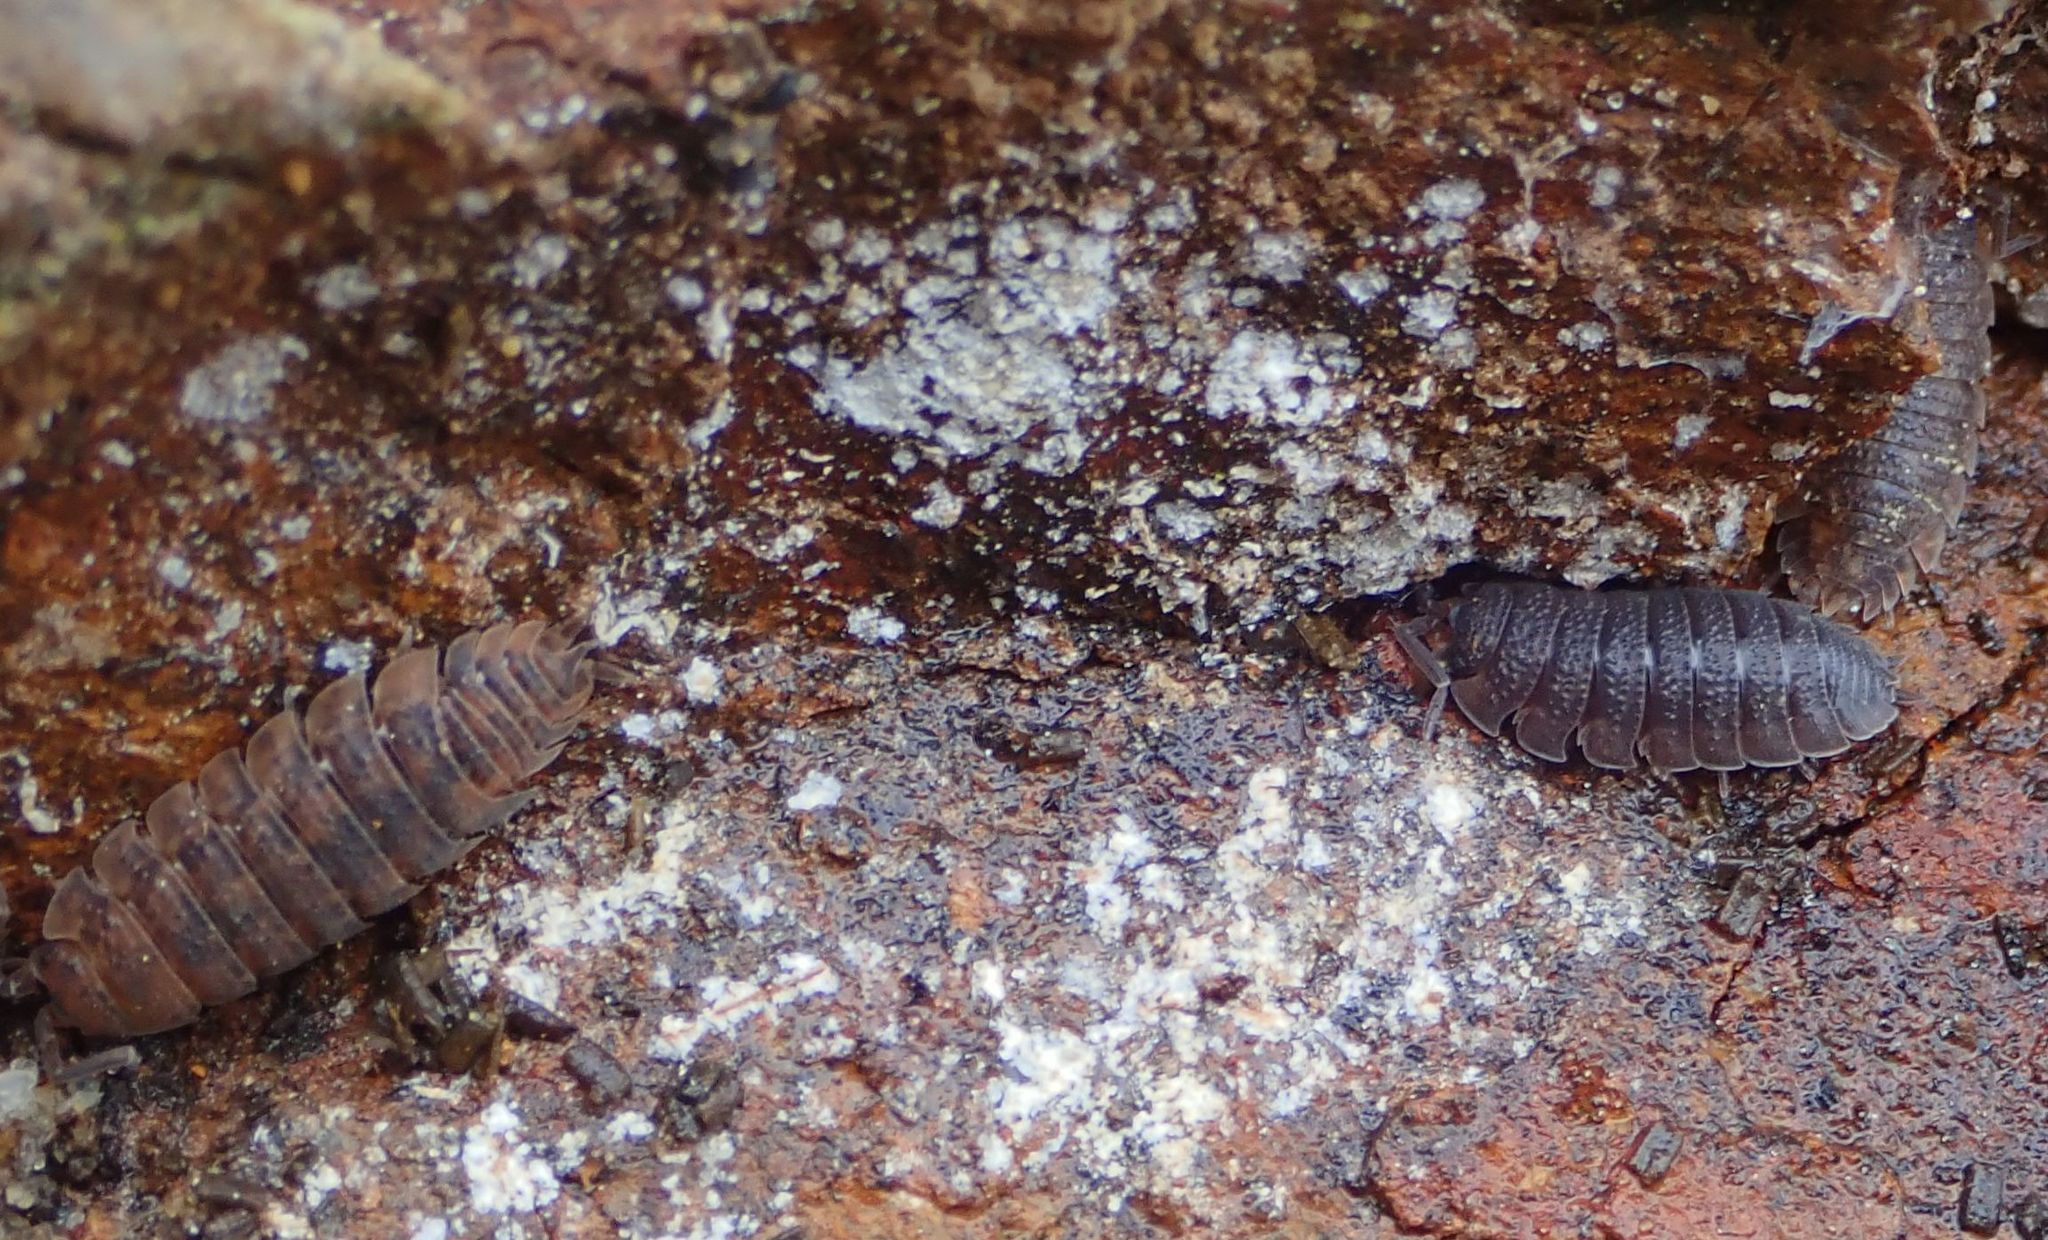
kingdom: Animalia
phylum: Arthropoda
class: Malacostraca
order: Isopoda
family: Porcellionidae
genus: Porcellio
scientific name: Porcellio scaber
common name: Common rough woodlouse
